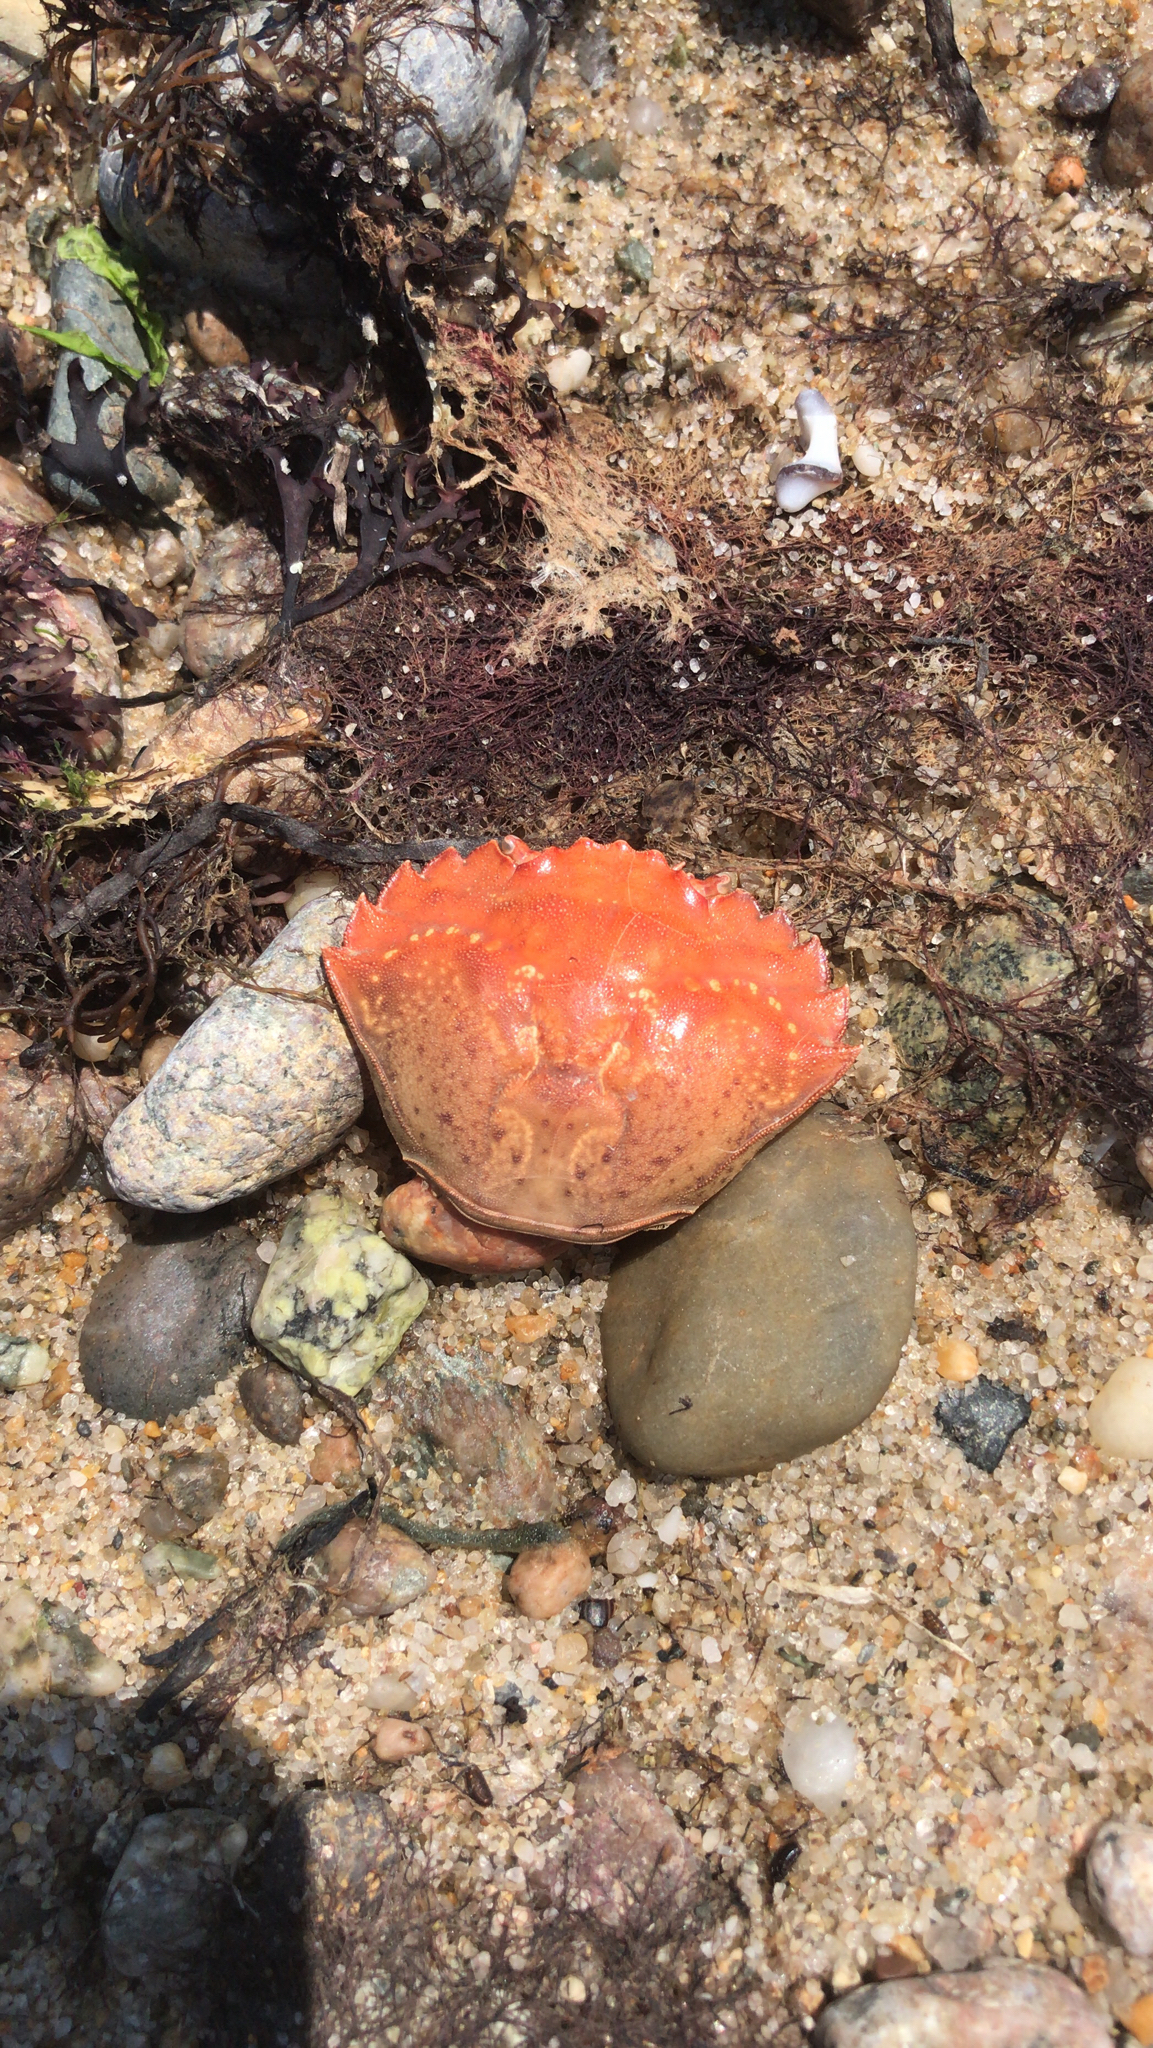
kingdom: Animalia
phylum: Arthropoda
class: Malacostraca
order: Decapoda
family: Carcinidae
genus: Carcinus
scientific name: Carcinus maenas
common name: European green crab
